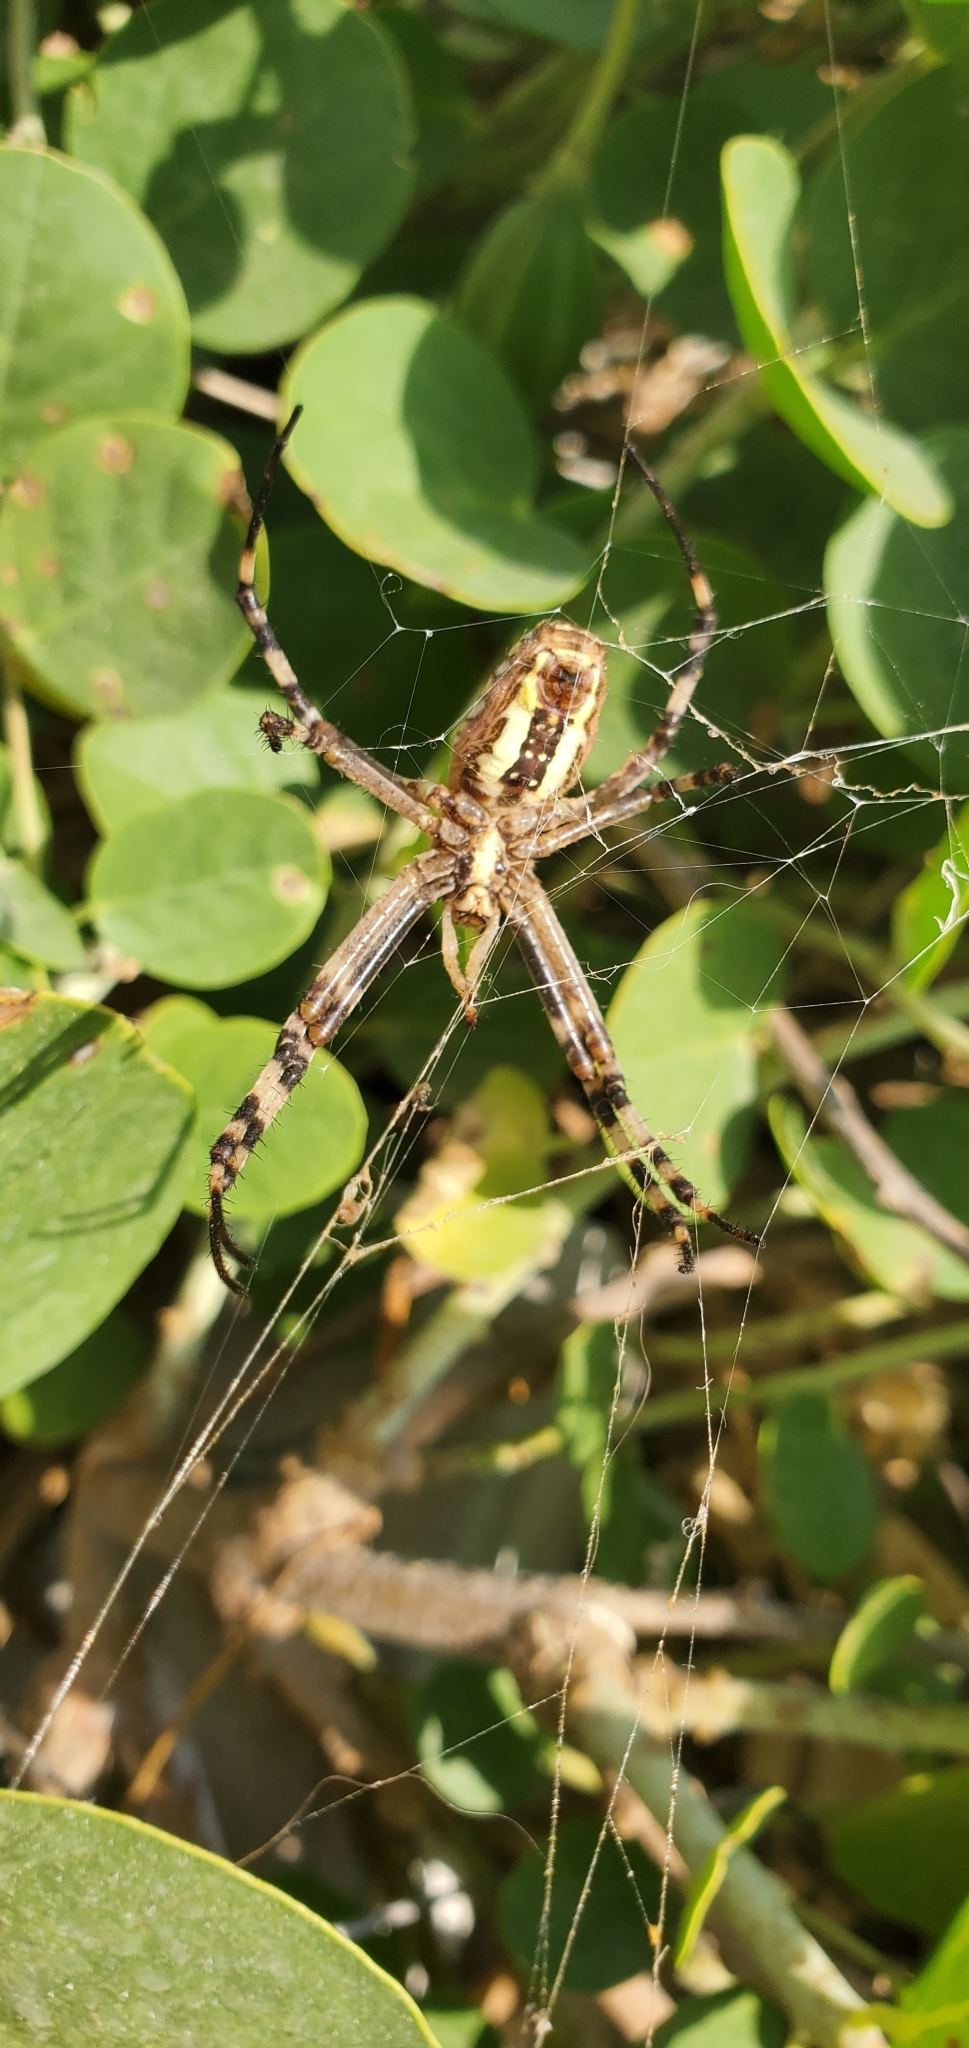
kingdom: Animalia
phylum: Arthropoda
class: Arachnida
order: Araneae
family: Araneidae
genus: Argiope
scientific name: Argiope bruennichi
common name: Wasp spider
